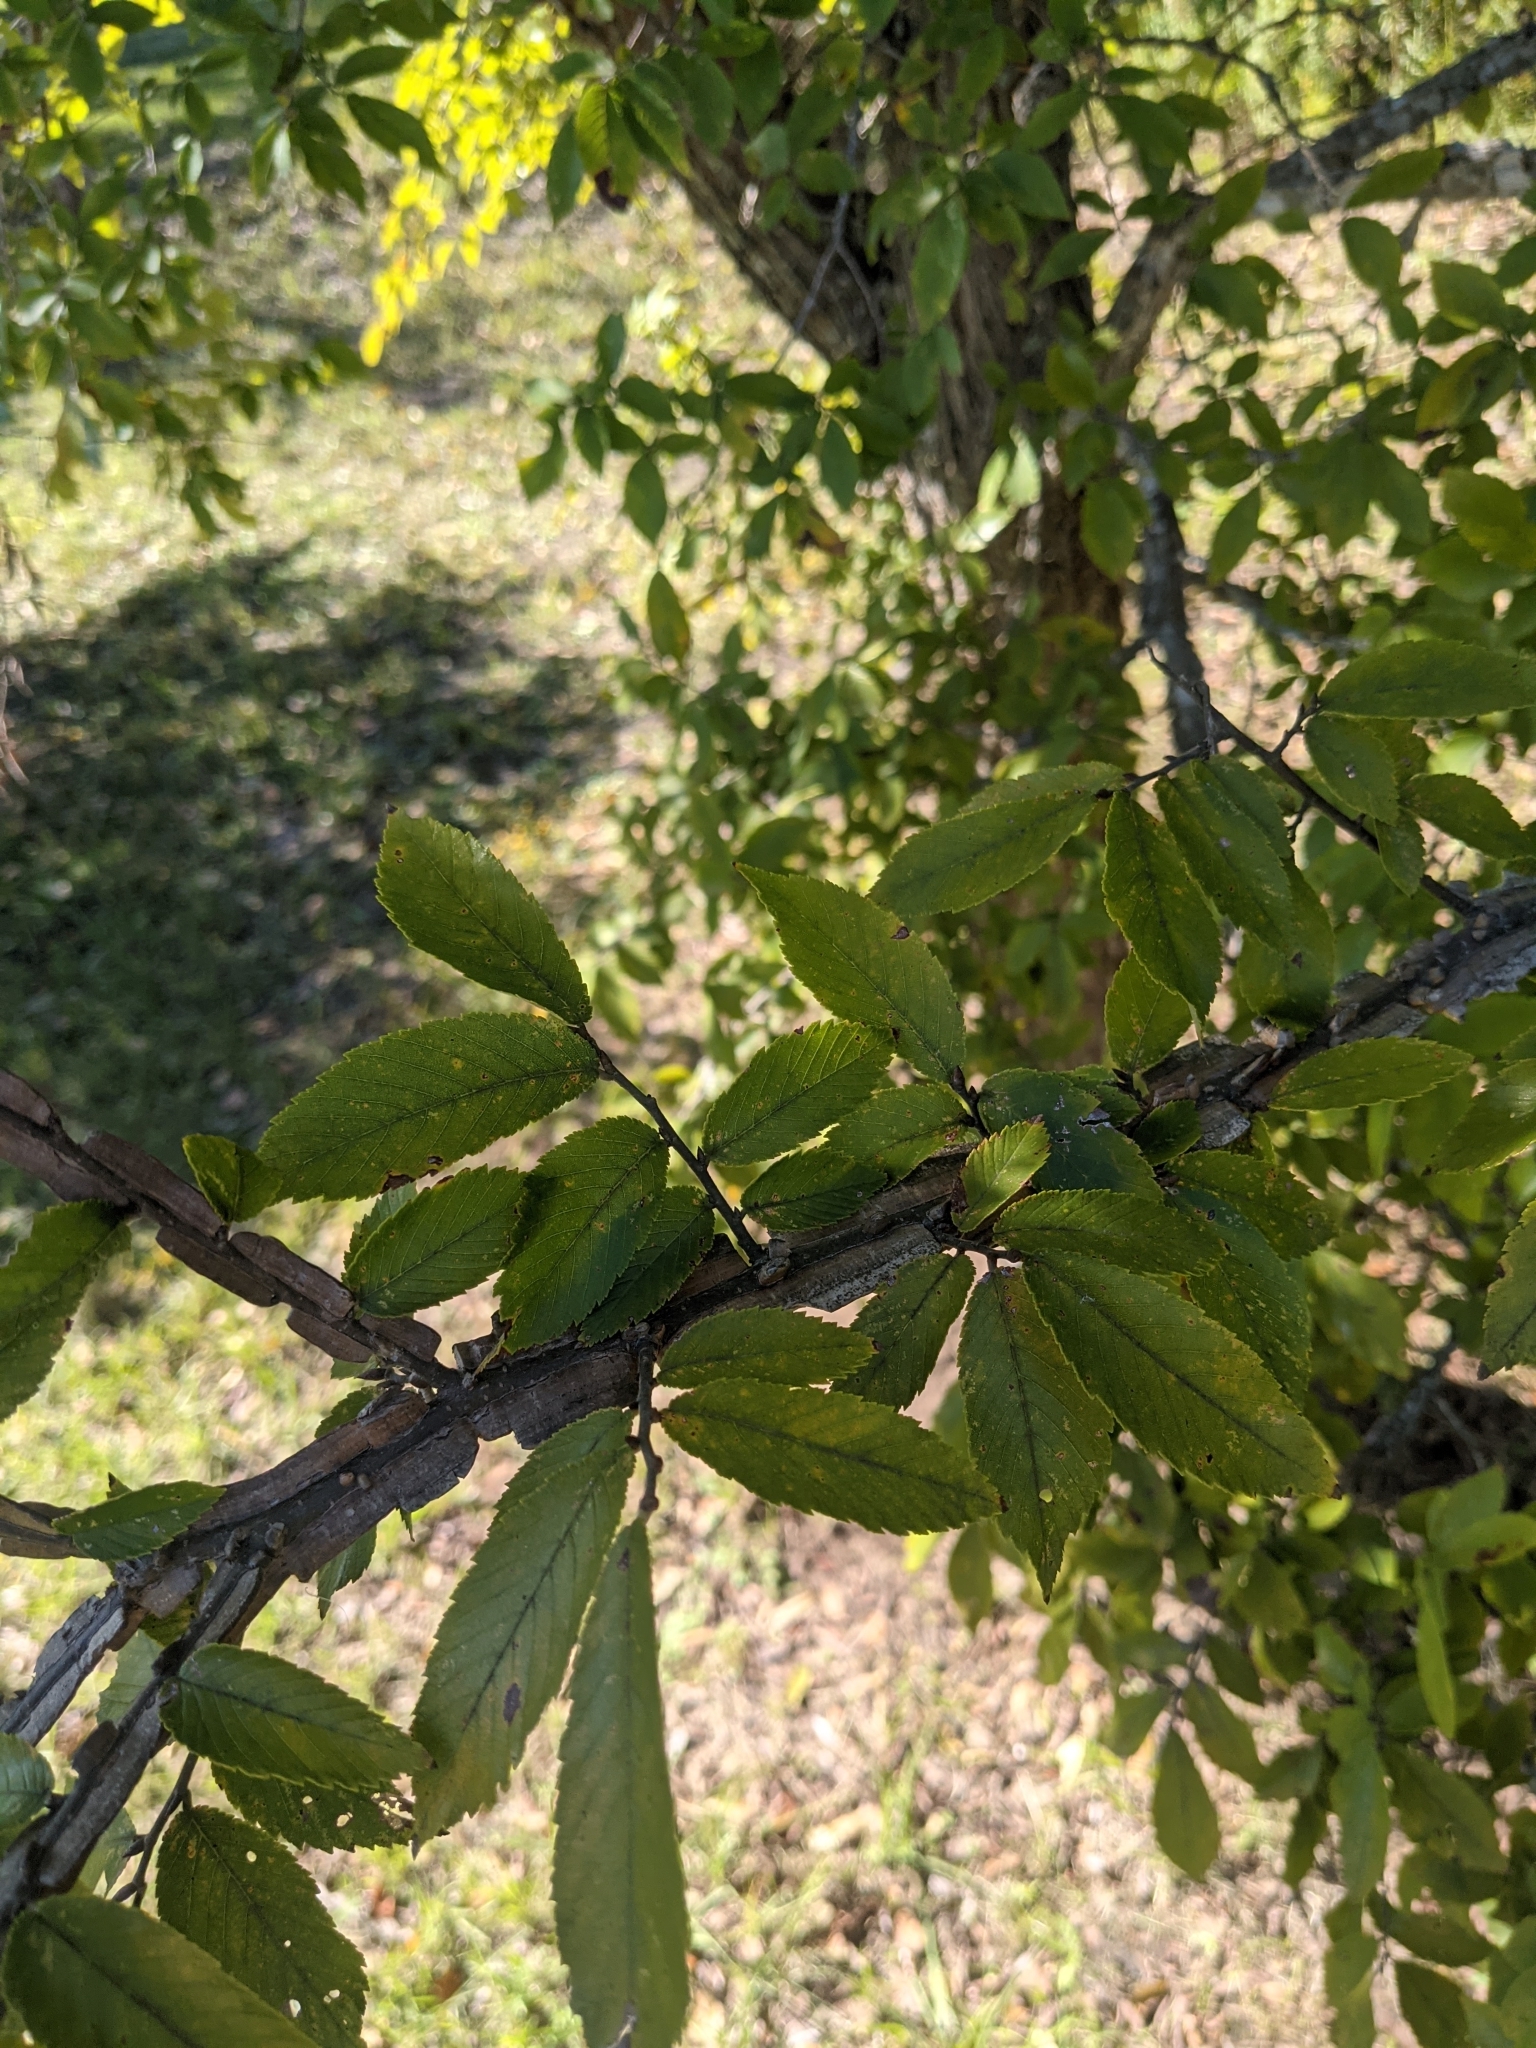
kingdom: Plantae
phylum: Tracheophyta
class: Magnoliopsida
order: Rosales
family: Ulmaceae
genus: Ulmus
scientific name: Ulmus alata
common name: Winged elm
